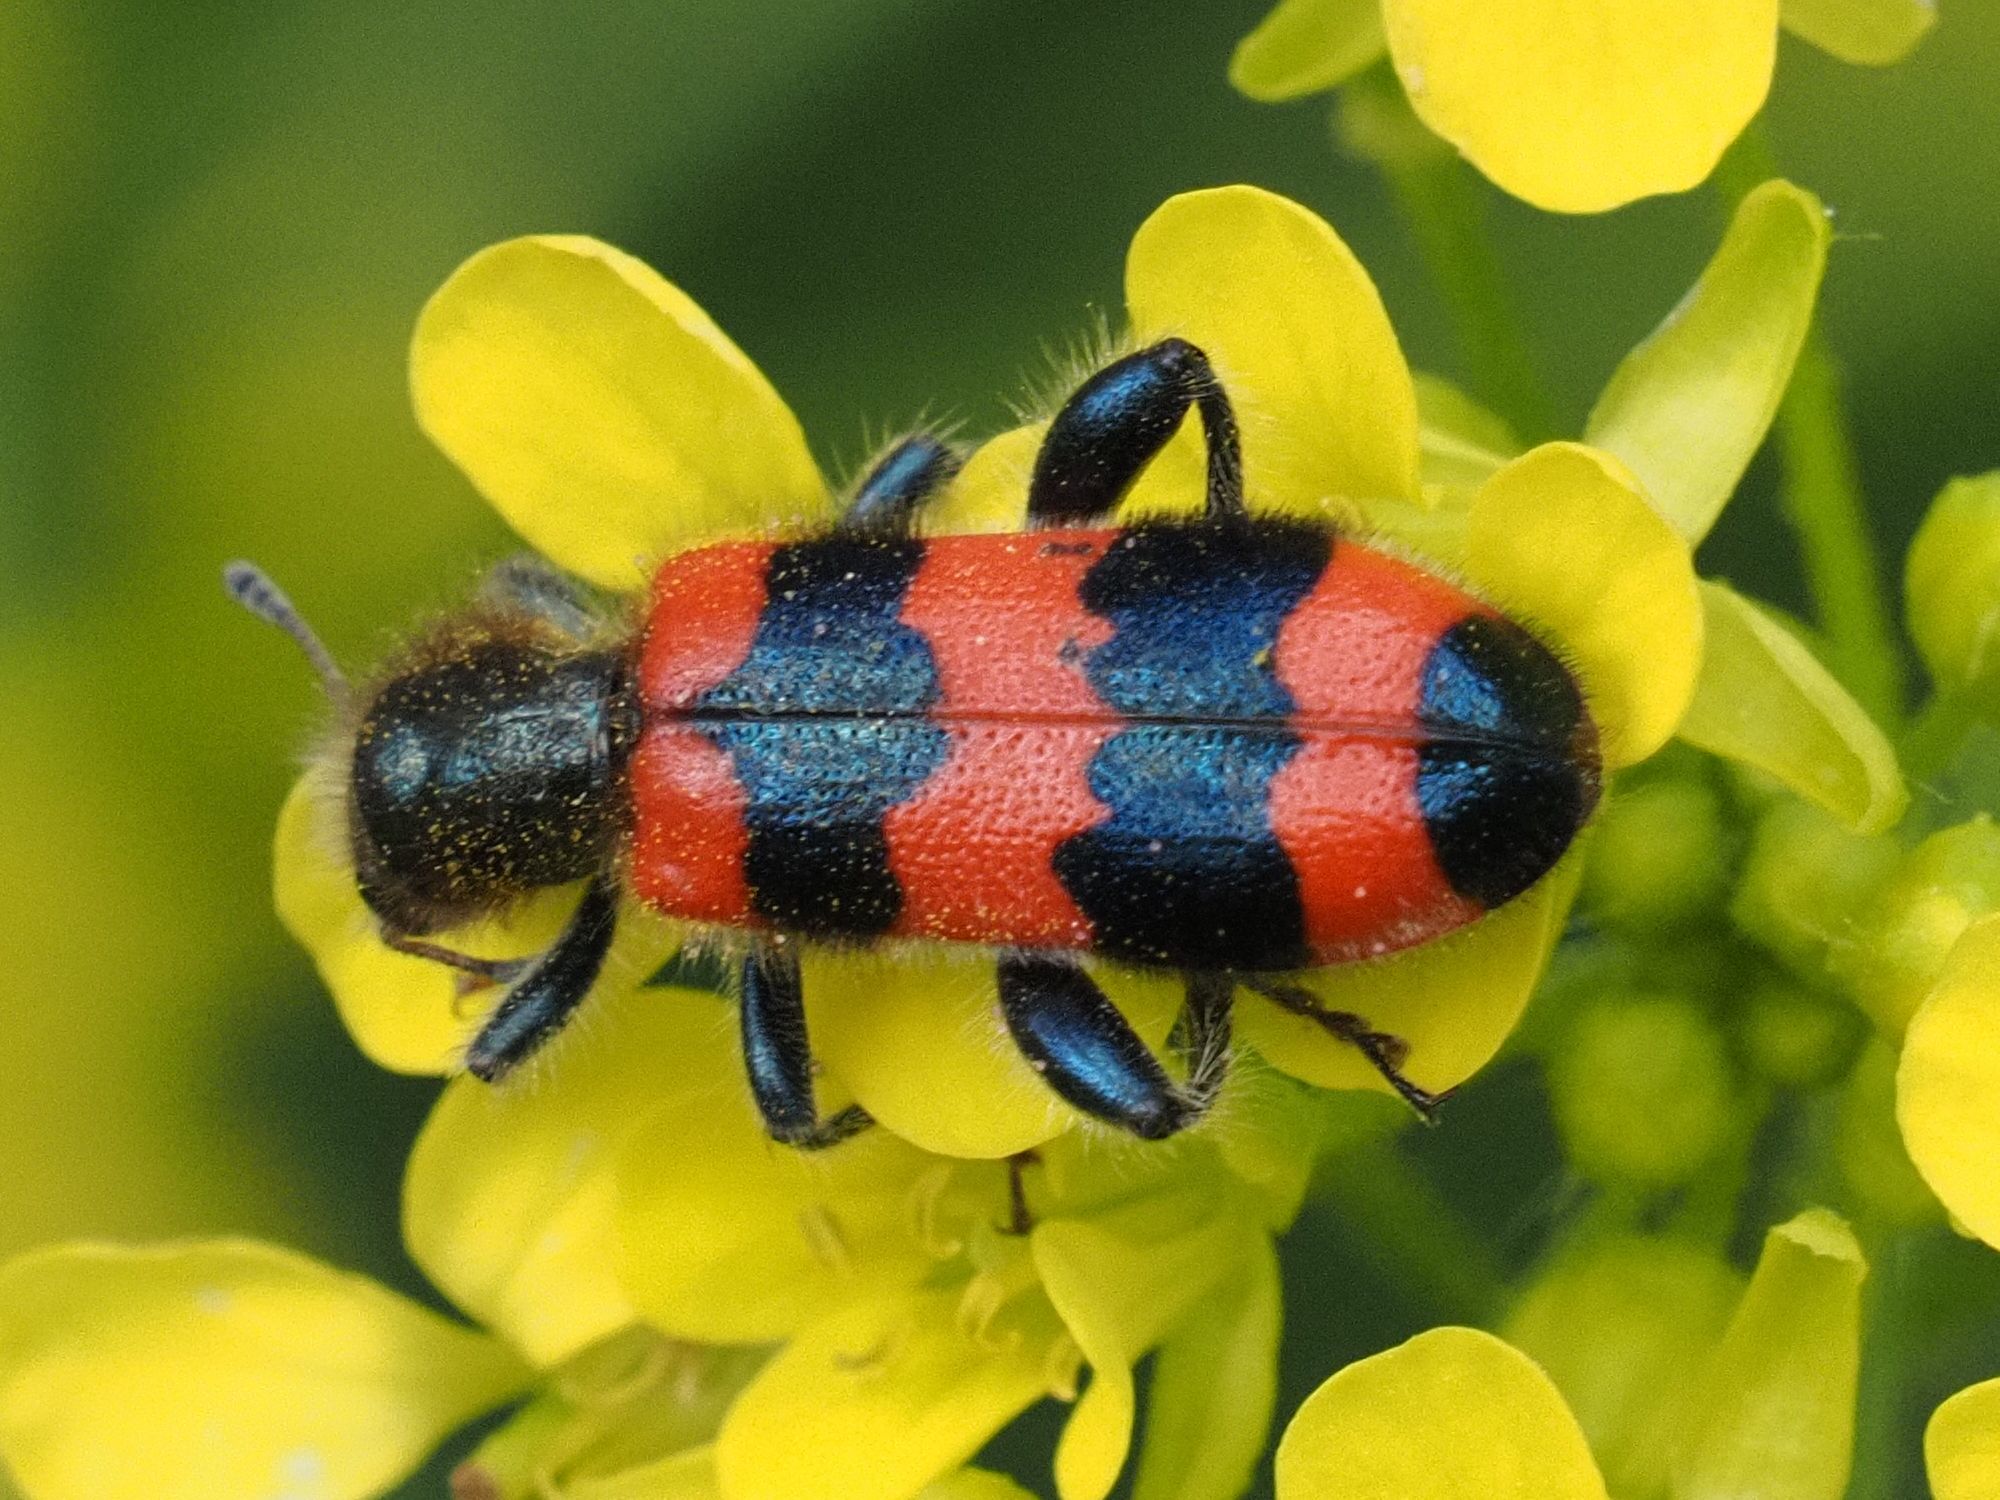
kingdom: Animalia
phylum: Arthropoda
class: Insecta
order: Coleoptera
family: Cleridae
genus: Trichodes
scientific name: Trichodes apiarius
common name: Bee-eating beetle
